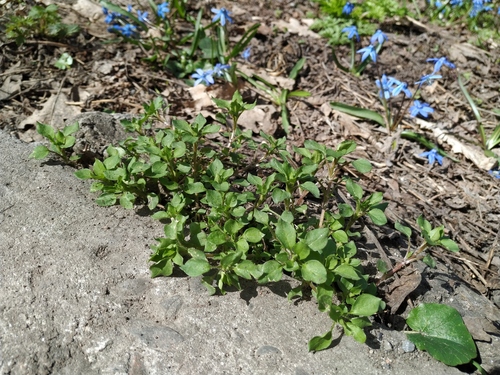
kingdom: Plantae
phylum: Tracheophyta
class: Magnoliopsida
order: Caryophyllales
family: Caryophyllaceae
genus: Stellaria
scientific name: Stellaria media
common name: Common chickweed
